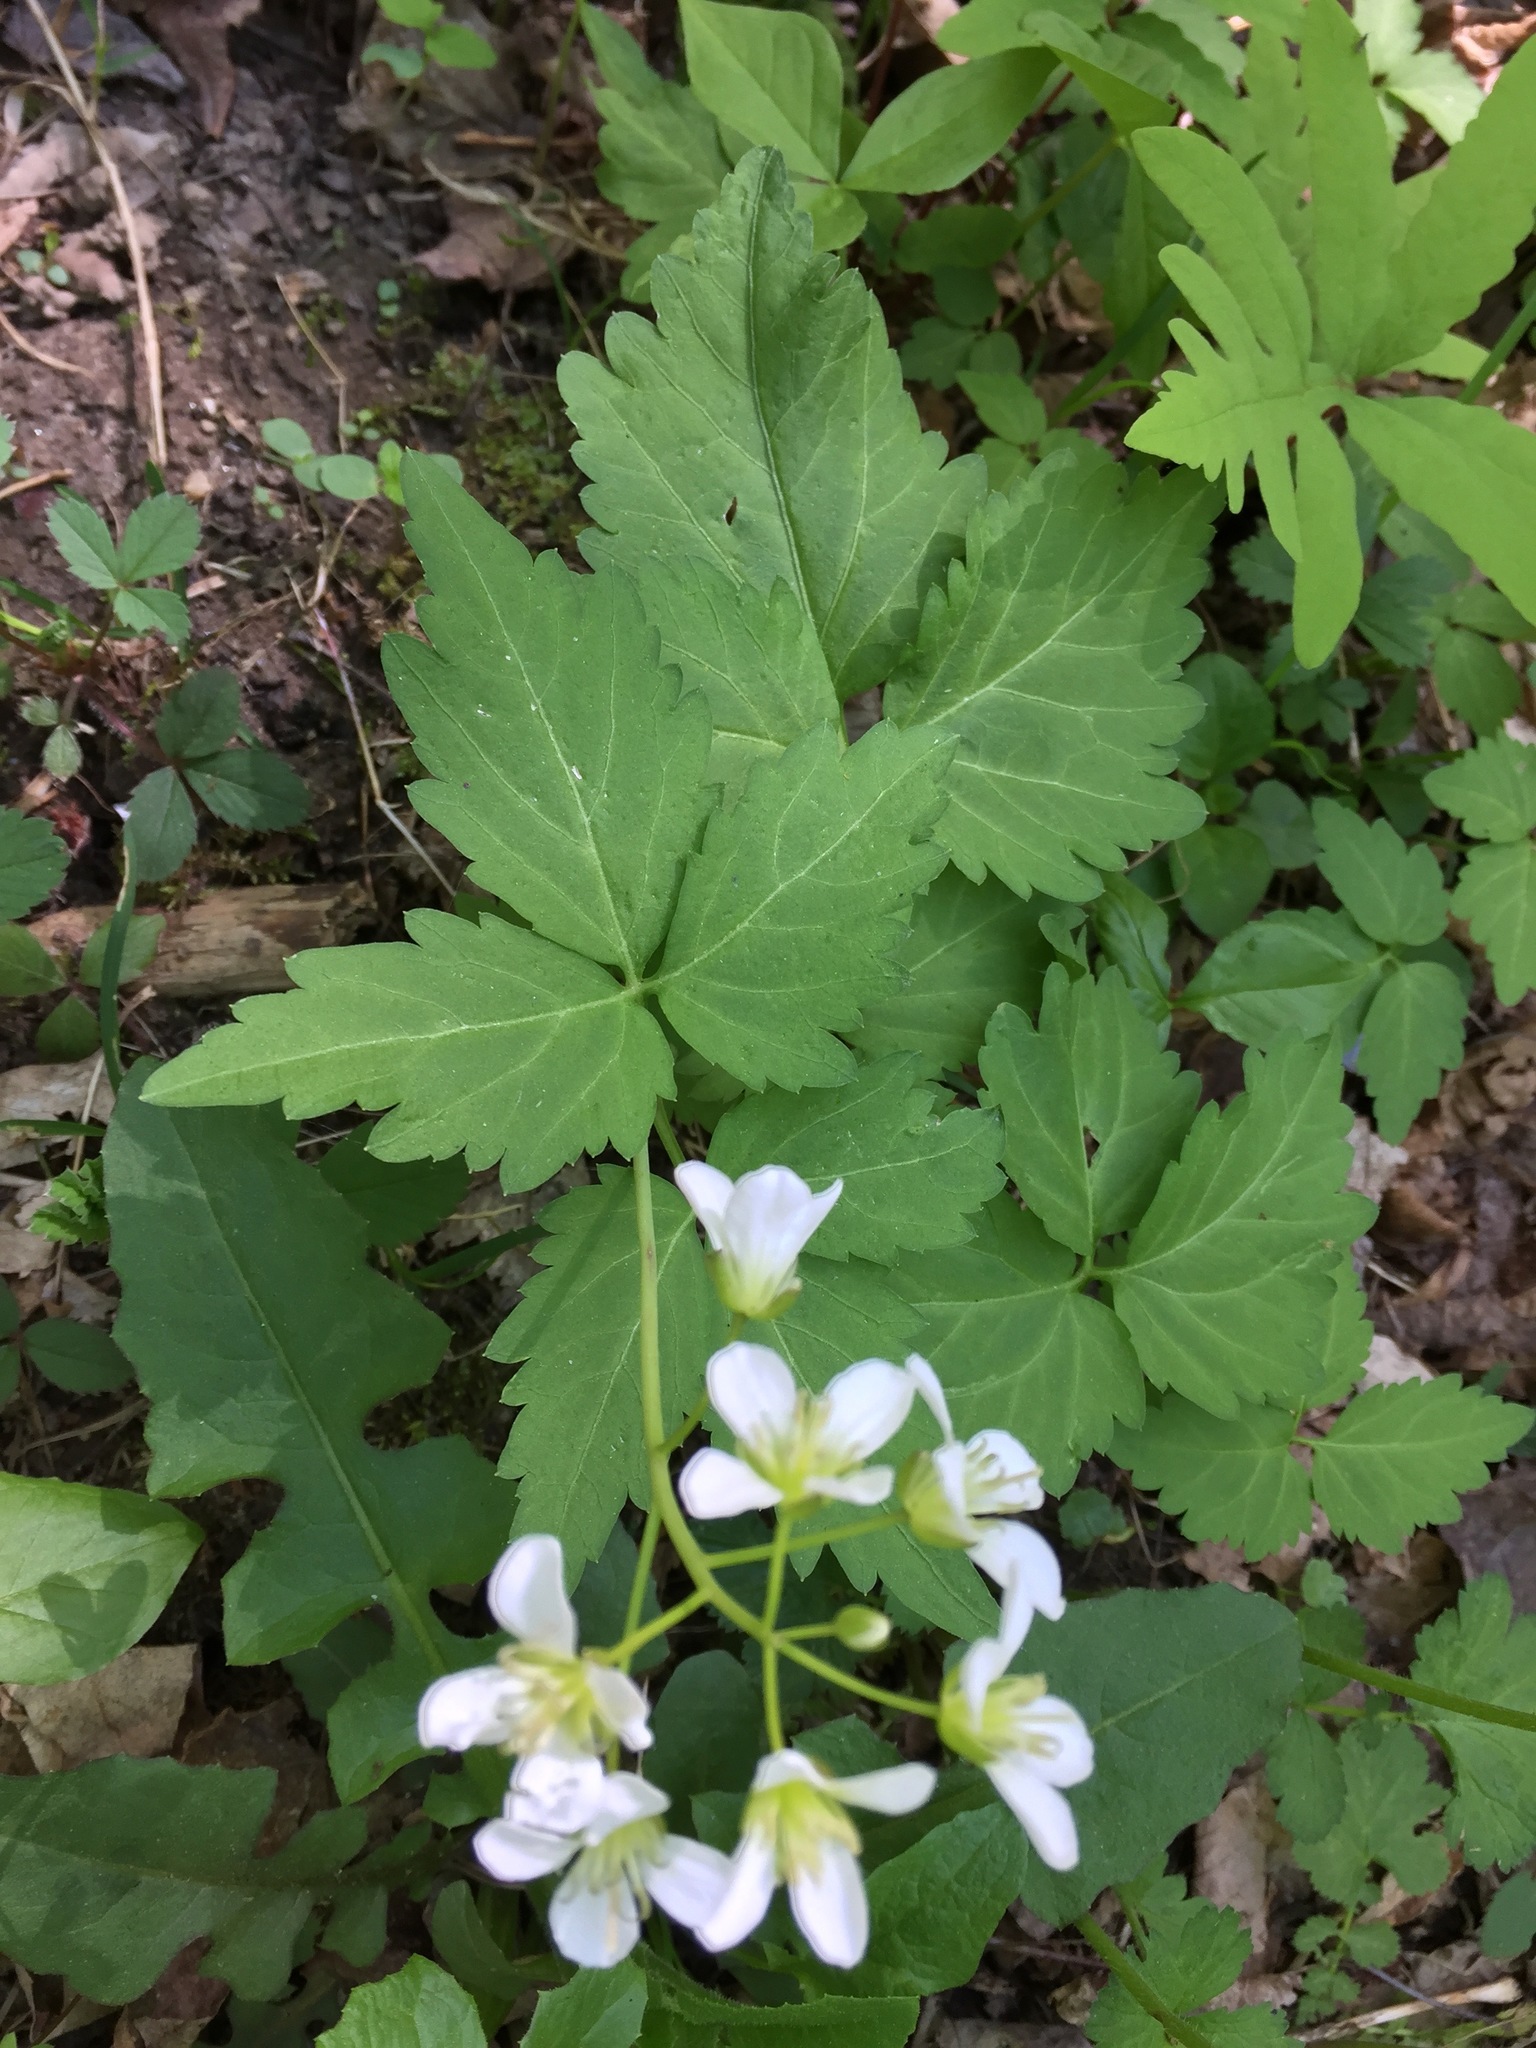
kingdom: Plantae
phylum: Tracheophyta
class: Magnoliopsida
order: Brassicales
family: Brassicaceae
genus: Cardamine
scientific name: Cardamine diphylla
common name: Broad-leaved toothwort
